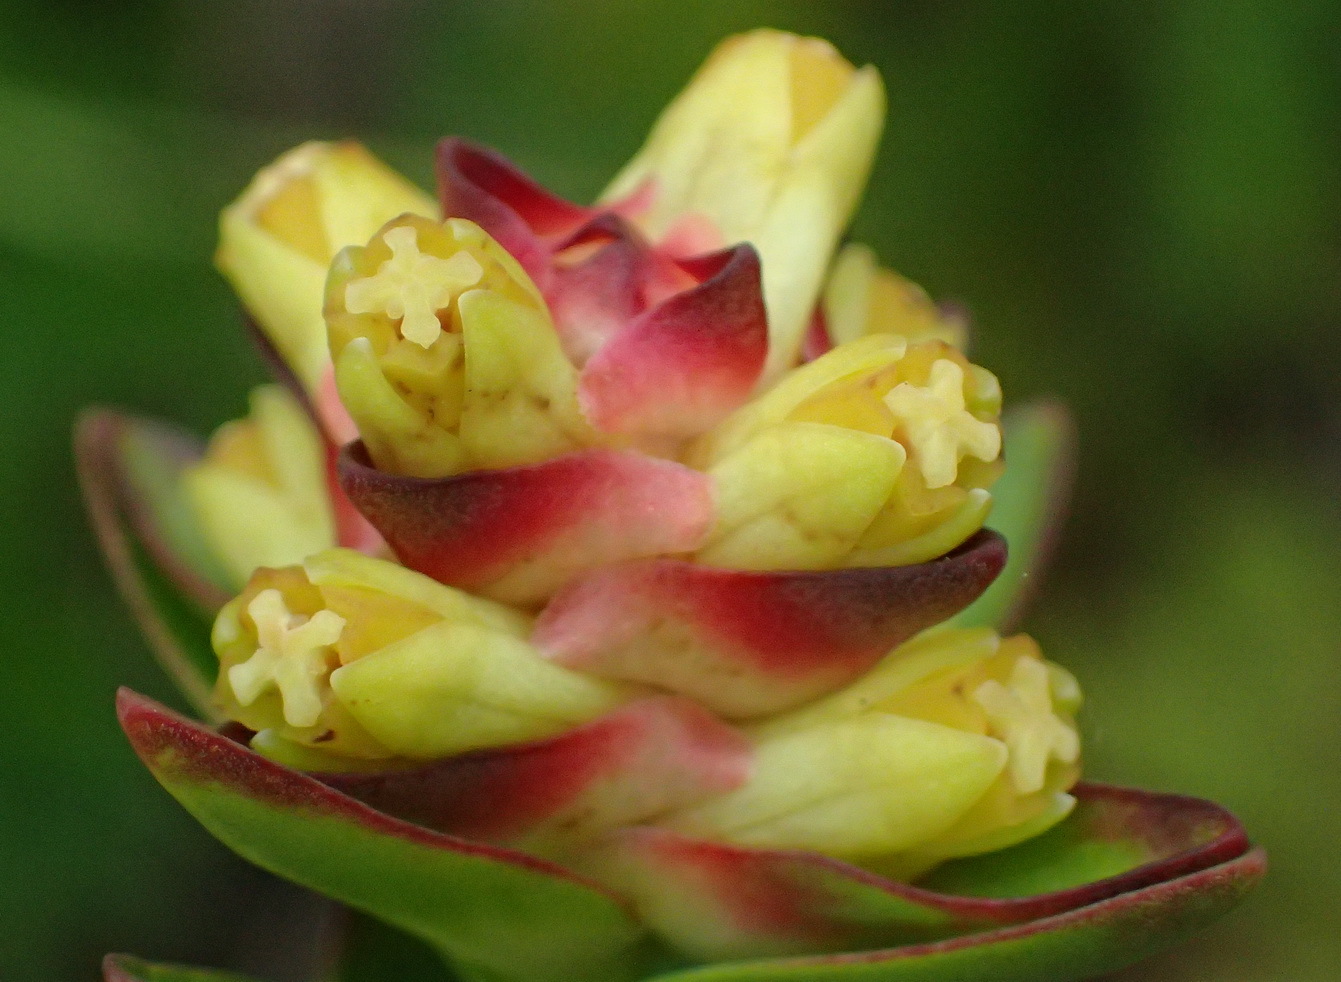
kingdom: Plantae
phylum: Tracheophyta
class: Magnoliopsida
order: Myrtales
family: Penaeaceae
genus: Penaea
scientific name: Penaea cneorum
